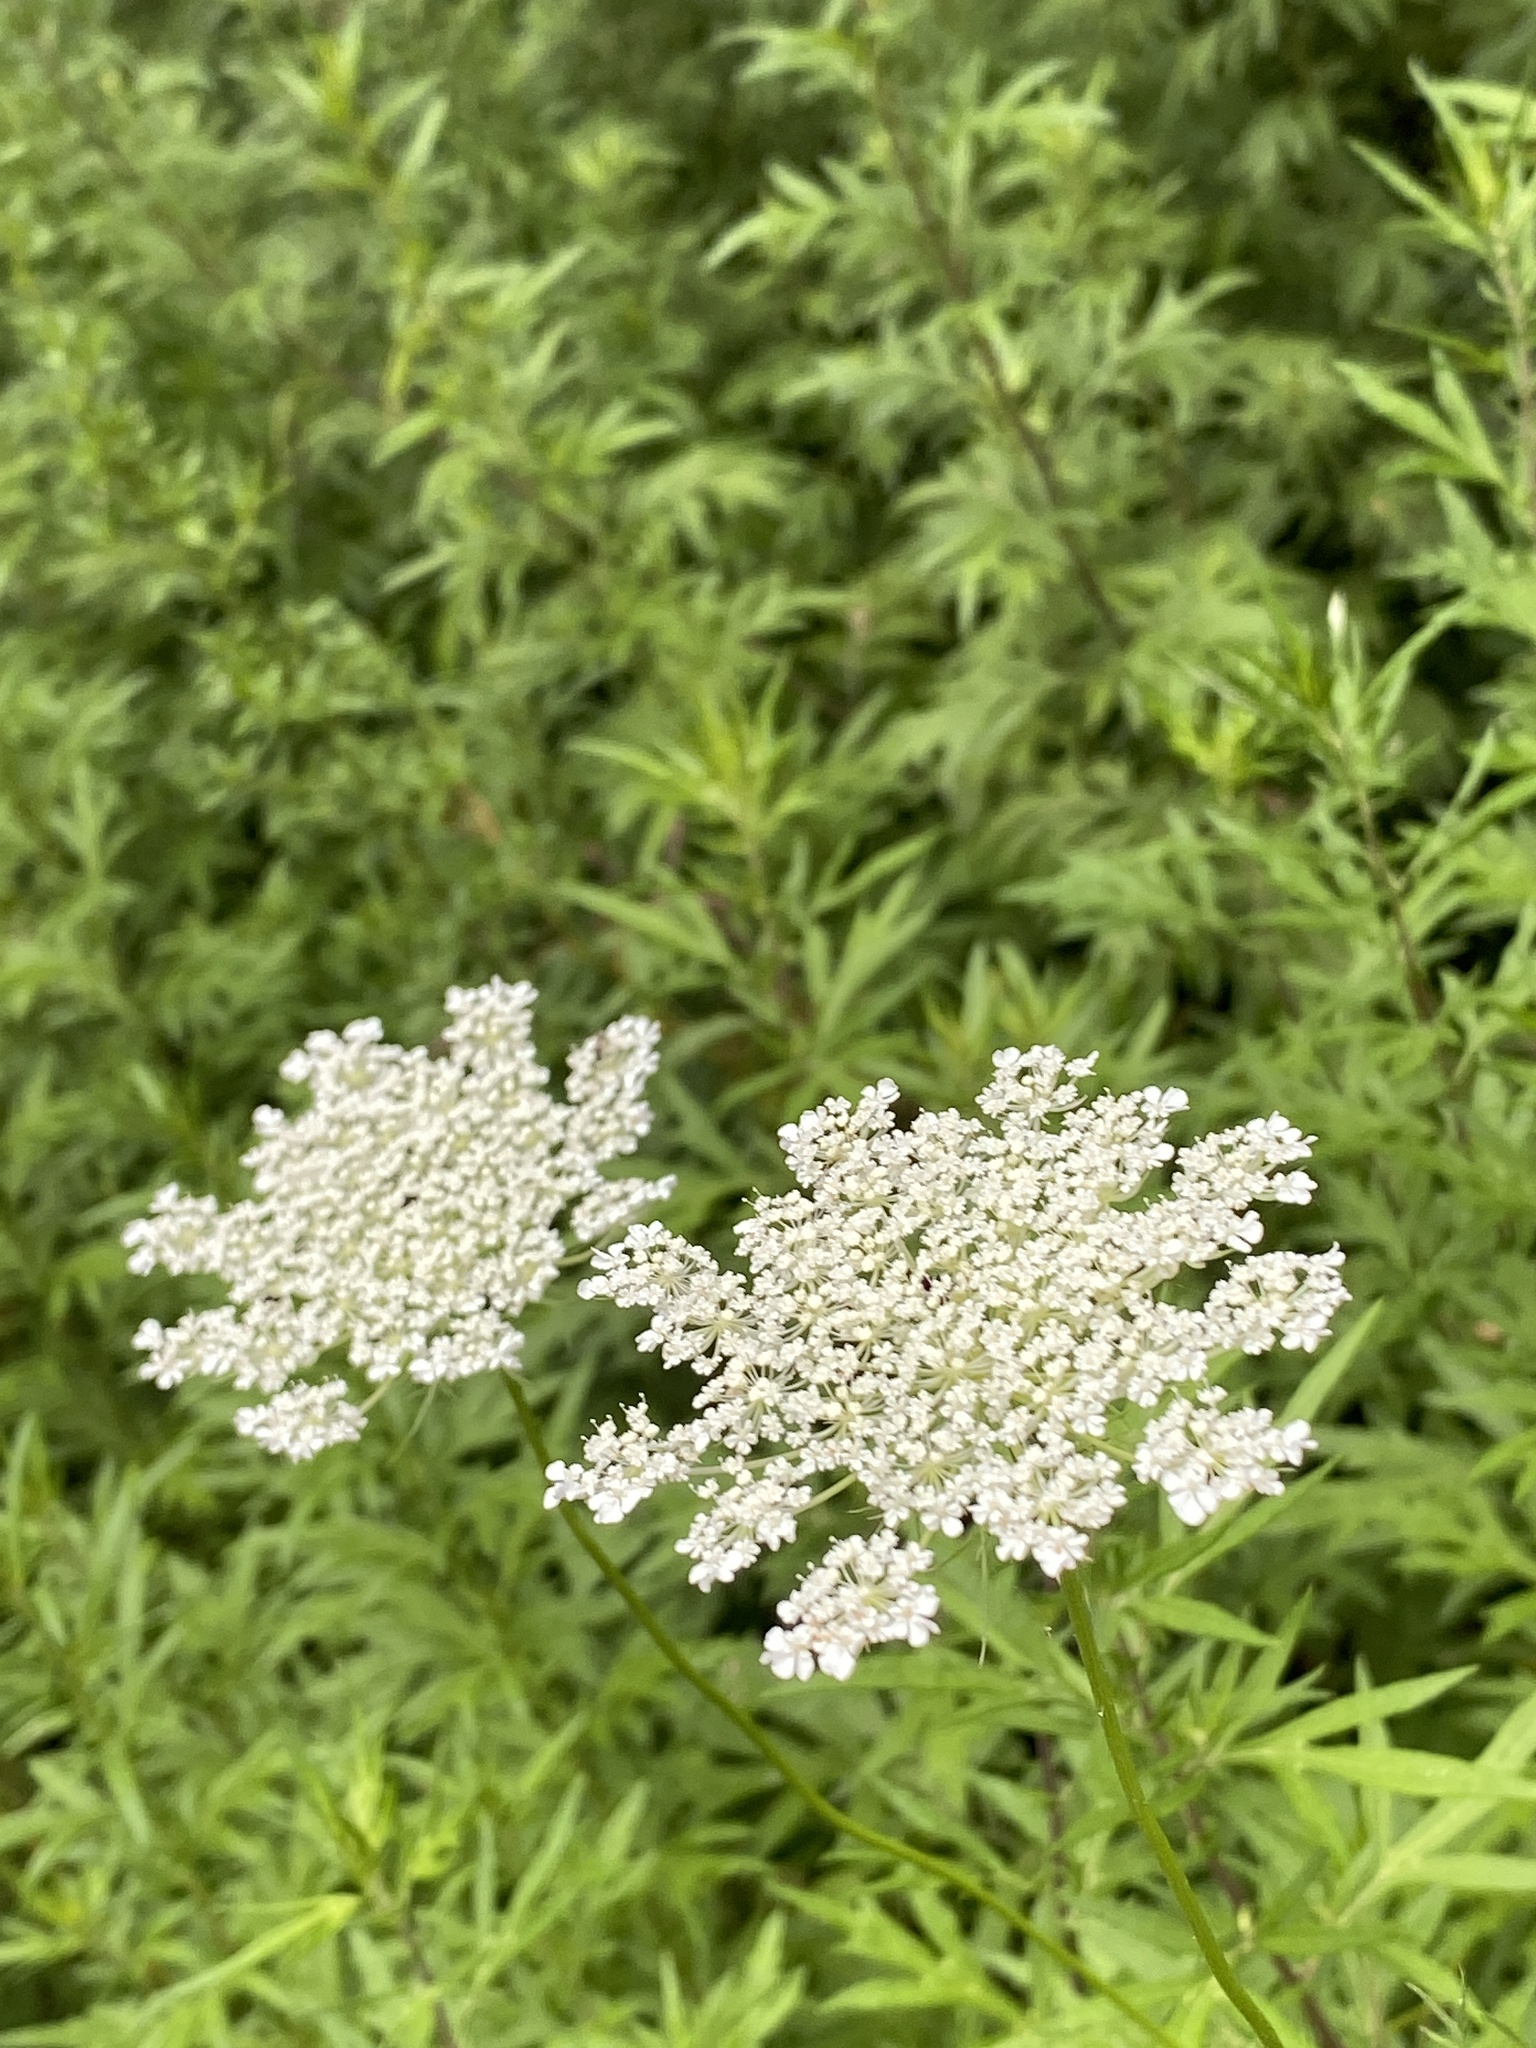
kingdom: Plantae
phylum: Tracheophyta
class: Magnoliopsida
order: Apiales
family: Apiaceae
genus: Daucus
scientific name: Daucus carota
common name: Wild carrot
